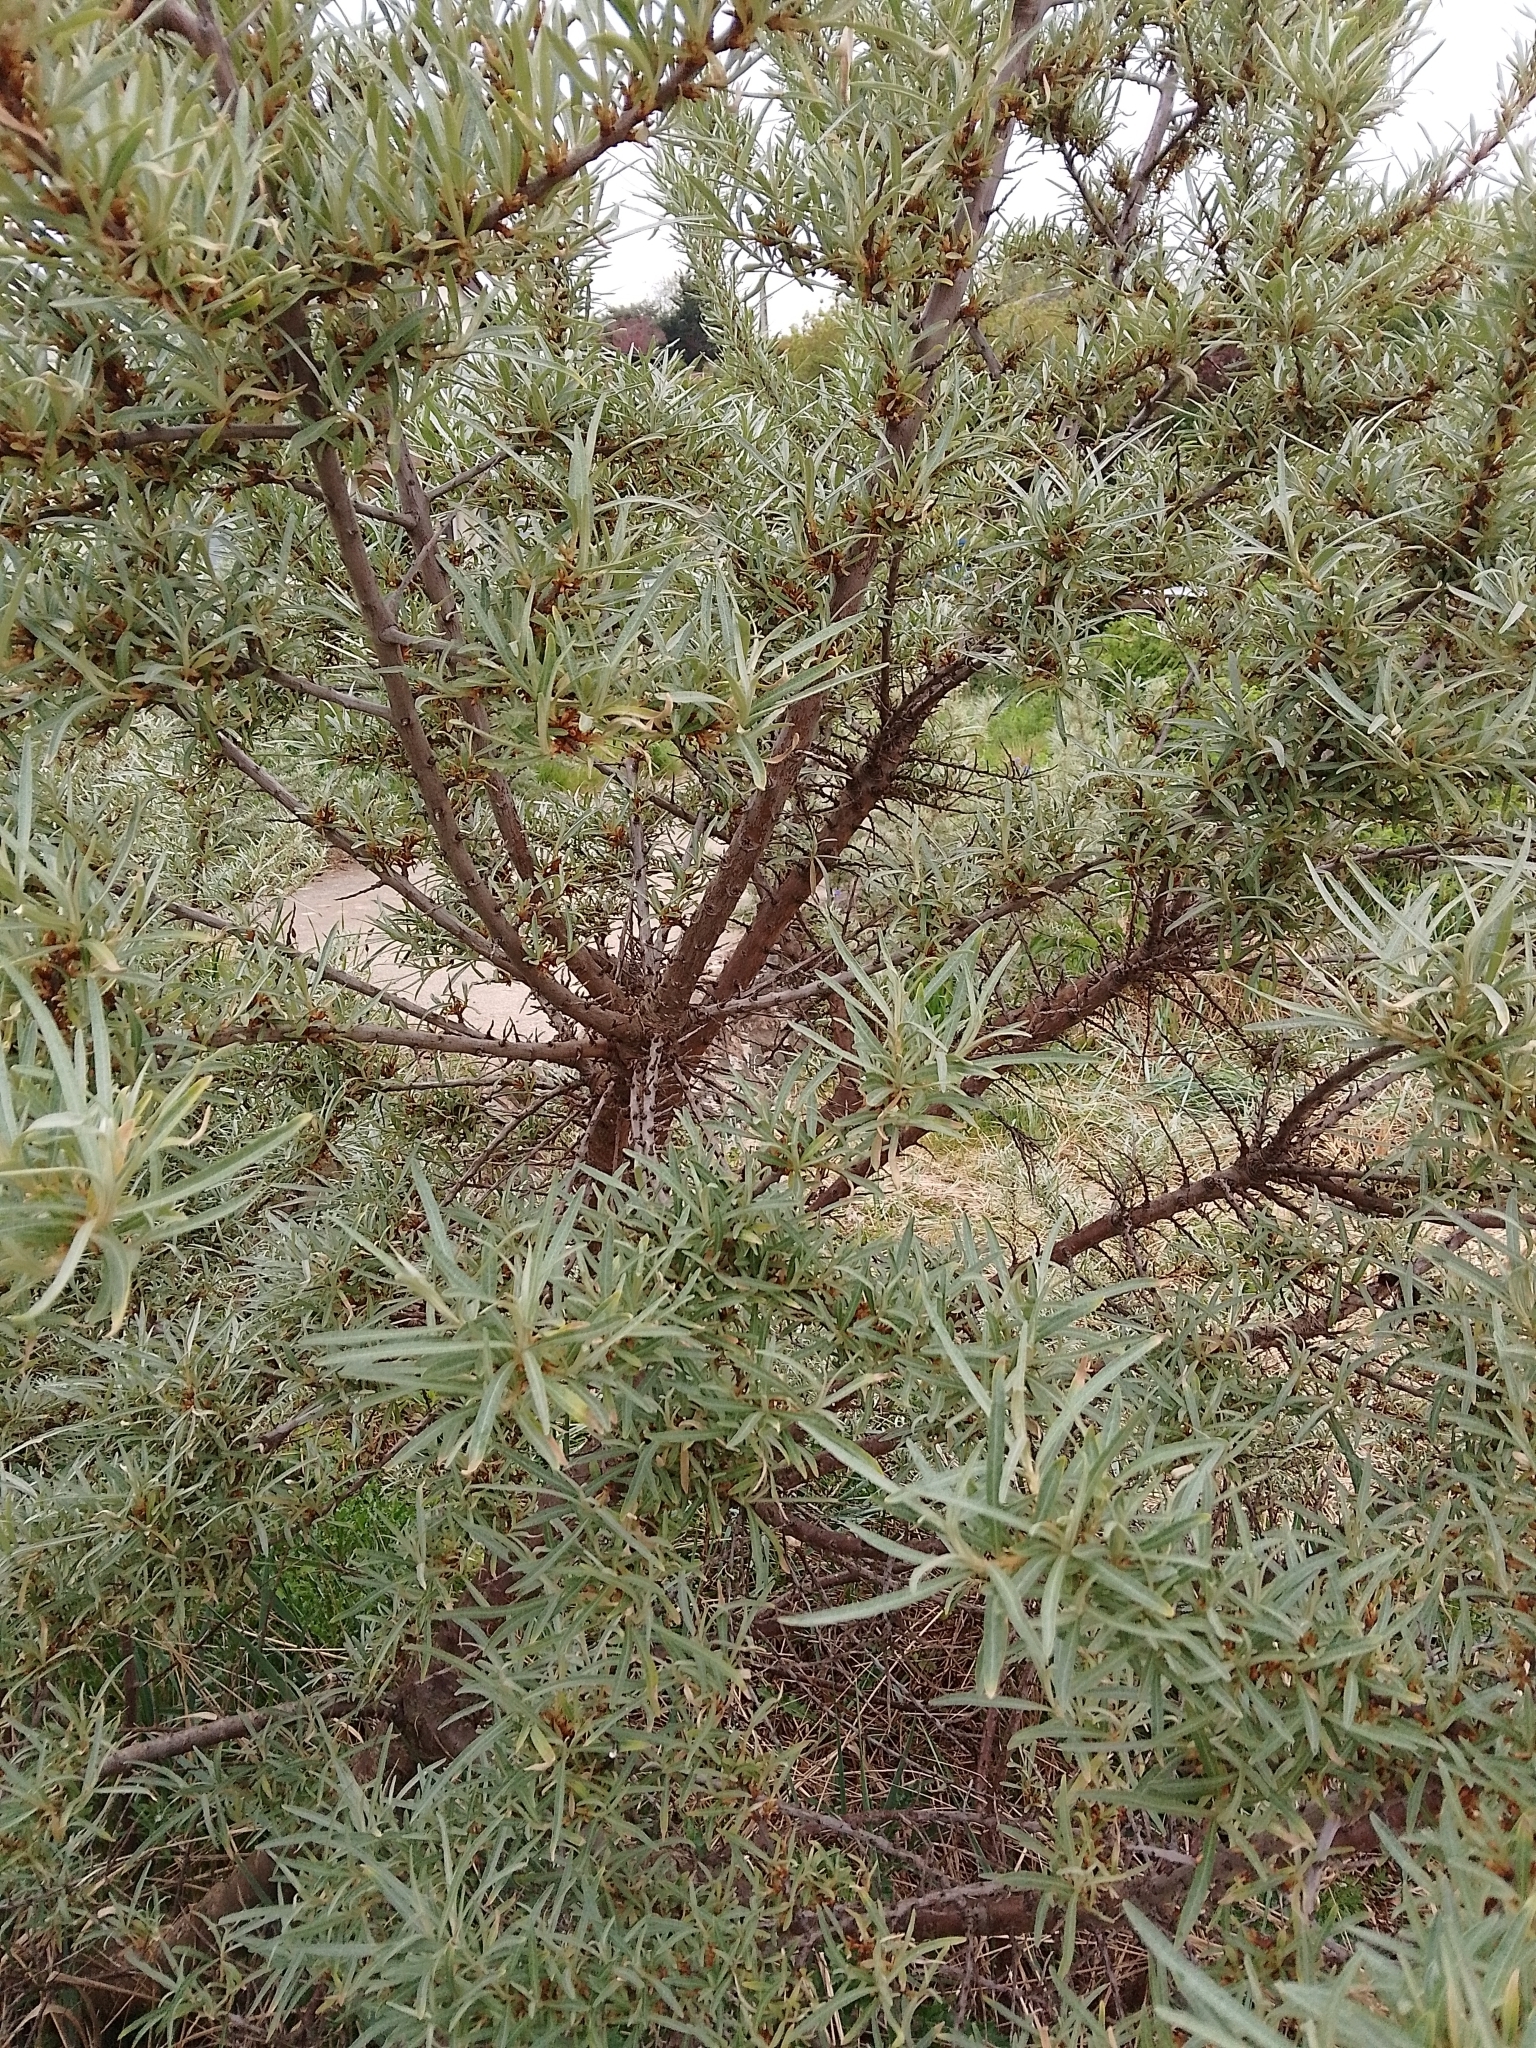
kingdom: Plantae
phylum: Tracheophyta
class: Magnoliopsida
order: Rosales
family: Elaeagnaceae
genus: Hippophae
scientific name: Hippophae rhamnoides
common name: Sea-buckthorn
